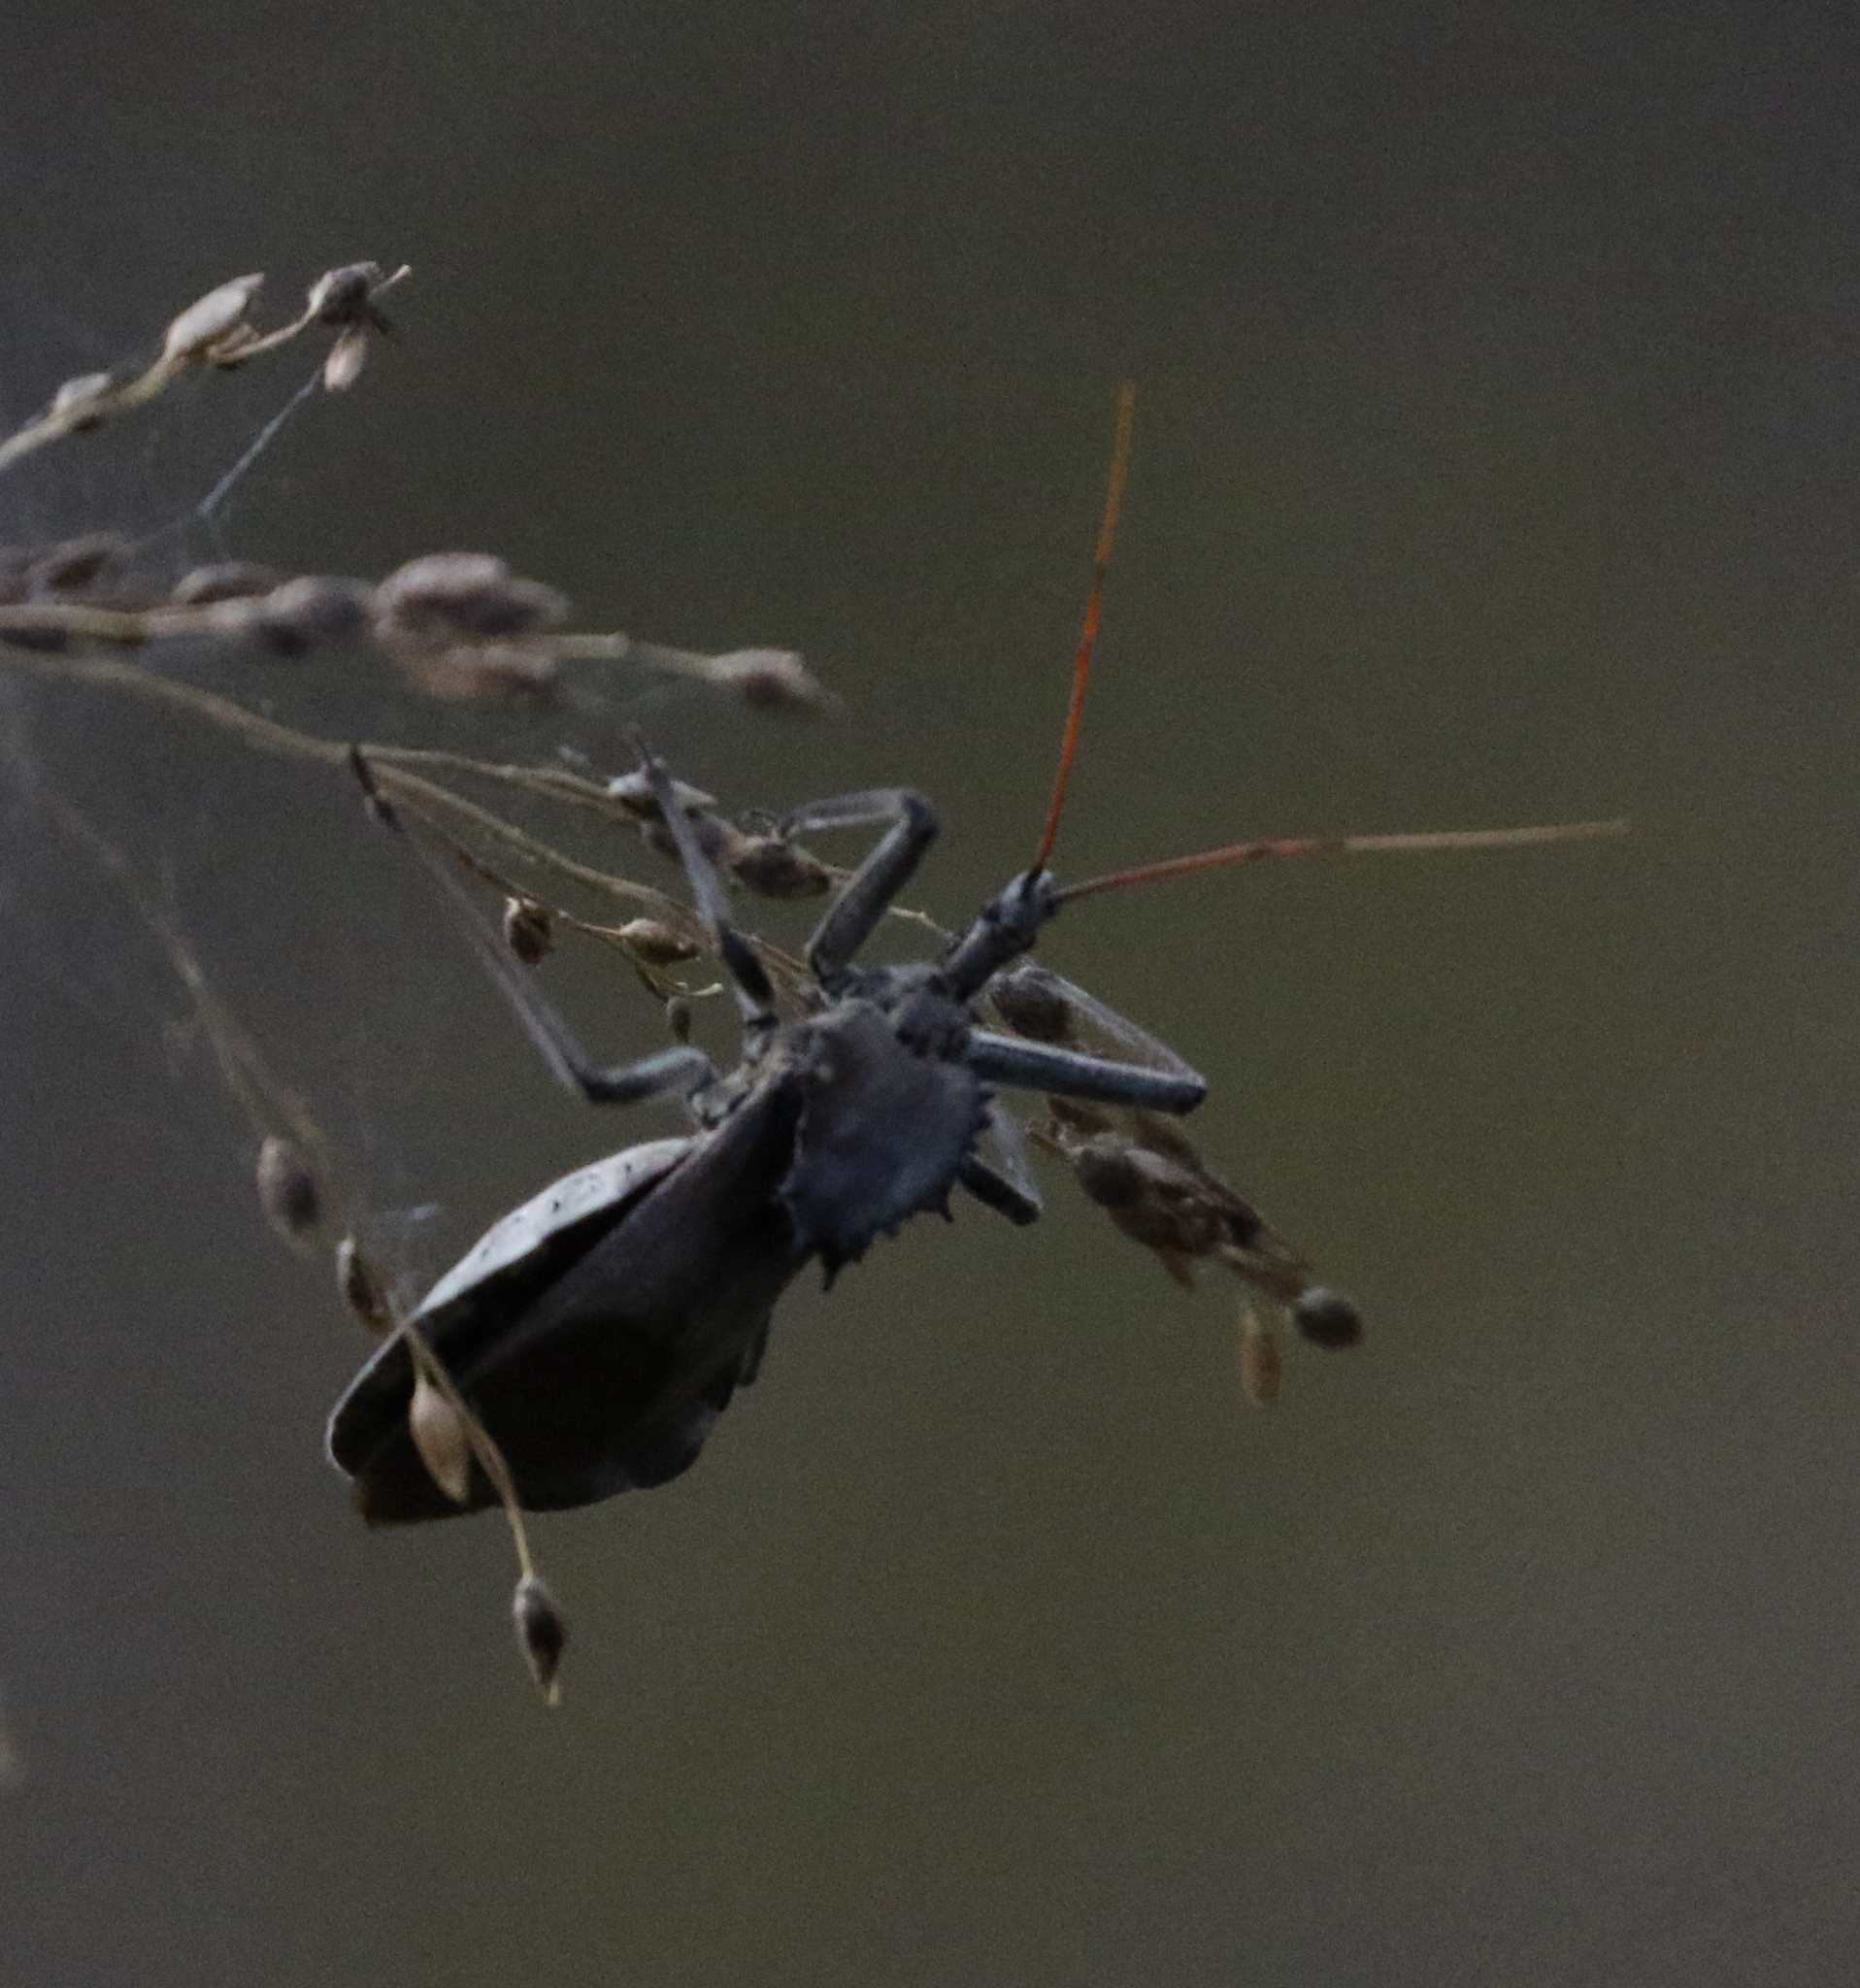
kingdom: Animalia
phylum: Arthropoda
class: Insecta
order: Hemiptera
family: Reduviidae
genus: Arilus
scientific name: Arilus cristatus
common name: North american wheel bug
